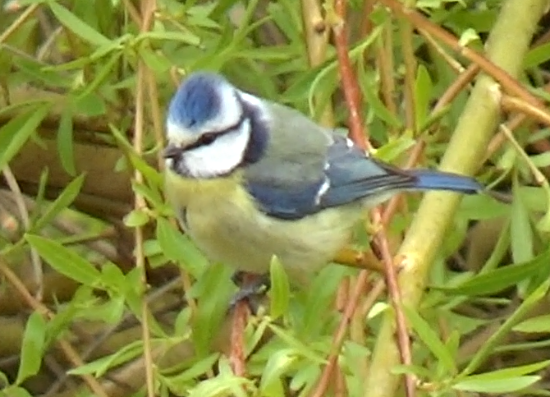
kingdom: Animalia
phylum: Chordata
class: Aves
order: Passeriformes
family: Paridae
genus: Cyanistes
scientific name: Cyanistes caeruleus
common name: Eurasian blue tit
